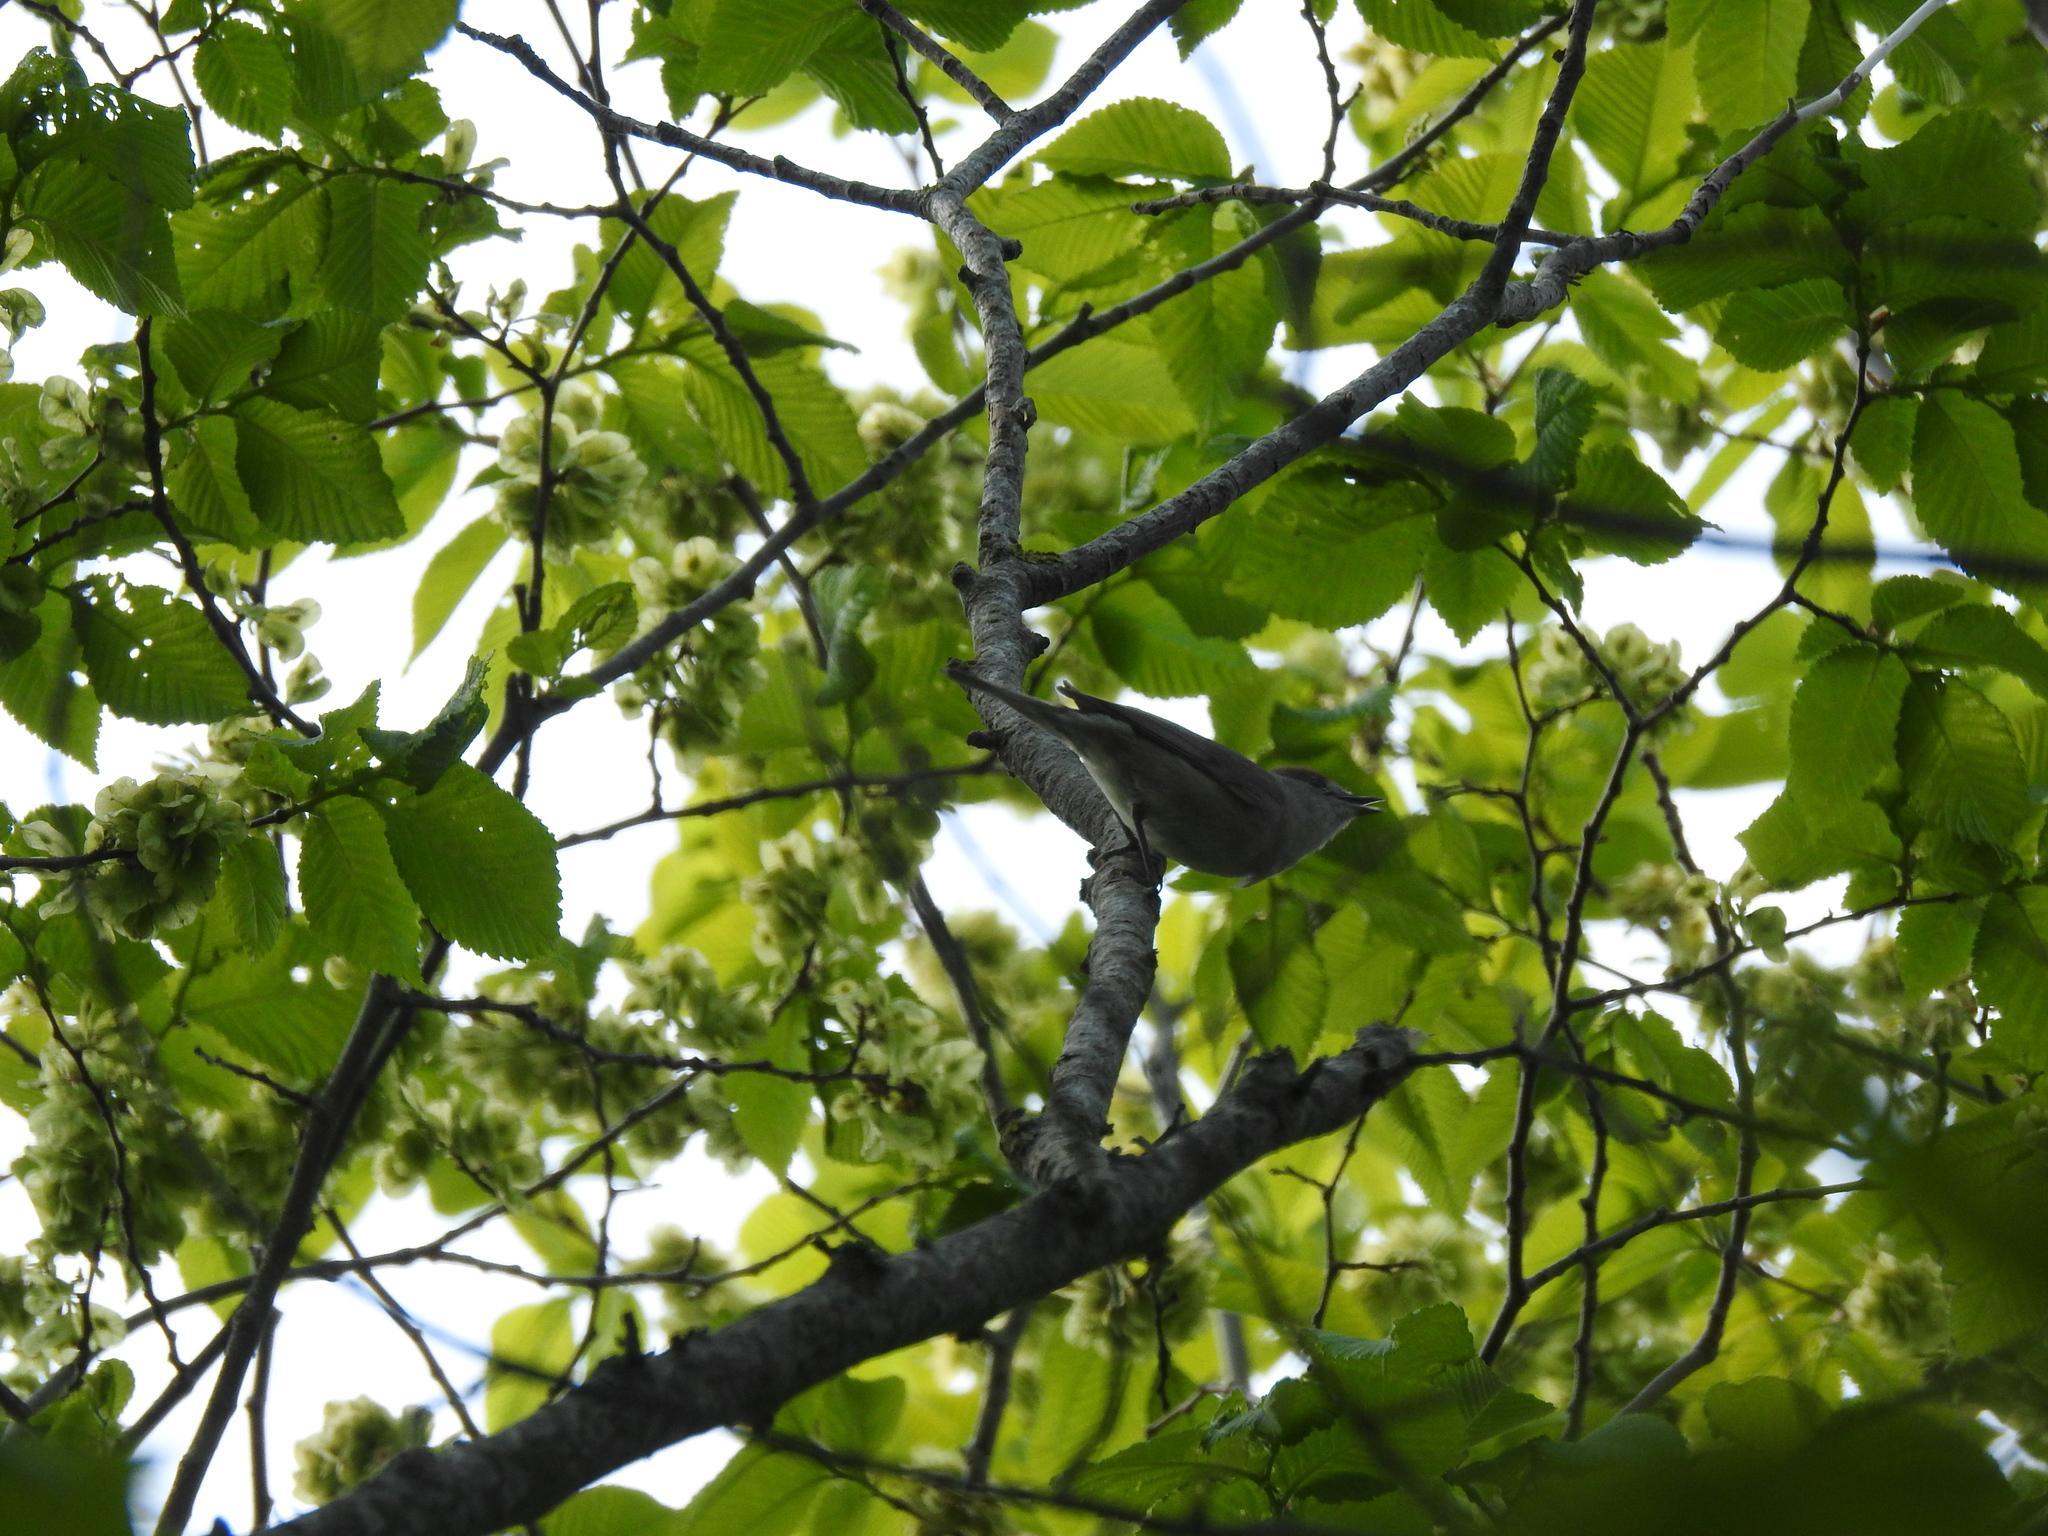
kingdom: Animalia
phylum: Chordata
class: Aves
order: Passeriformes
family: Sylviidae
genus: Sylvia
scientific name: Sylvia atricapilla
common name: Eurasian blackcap
